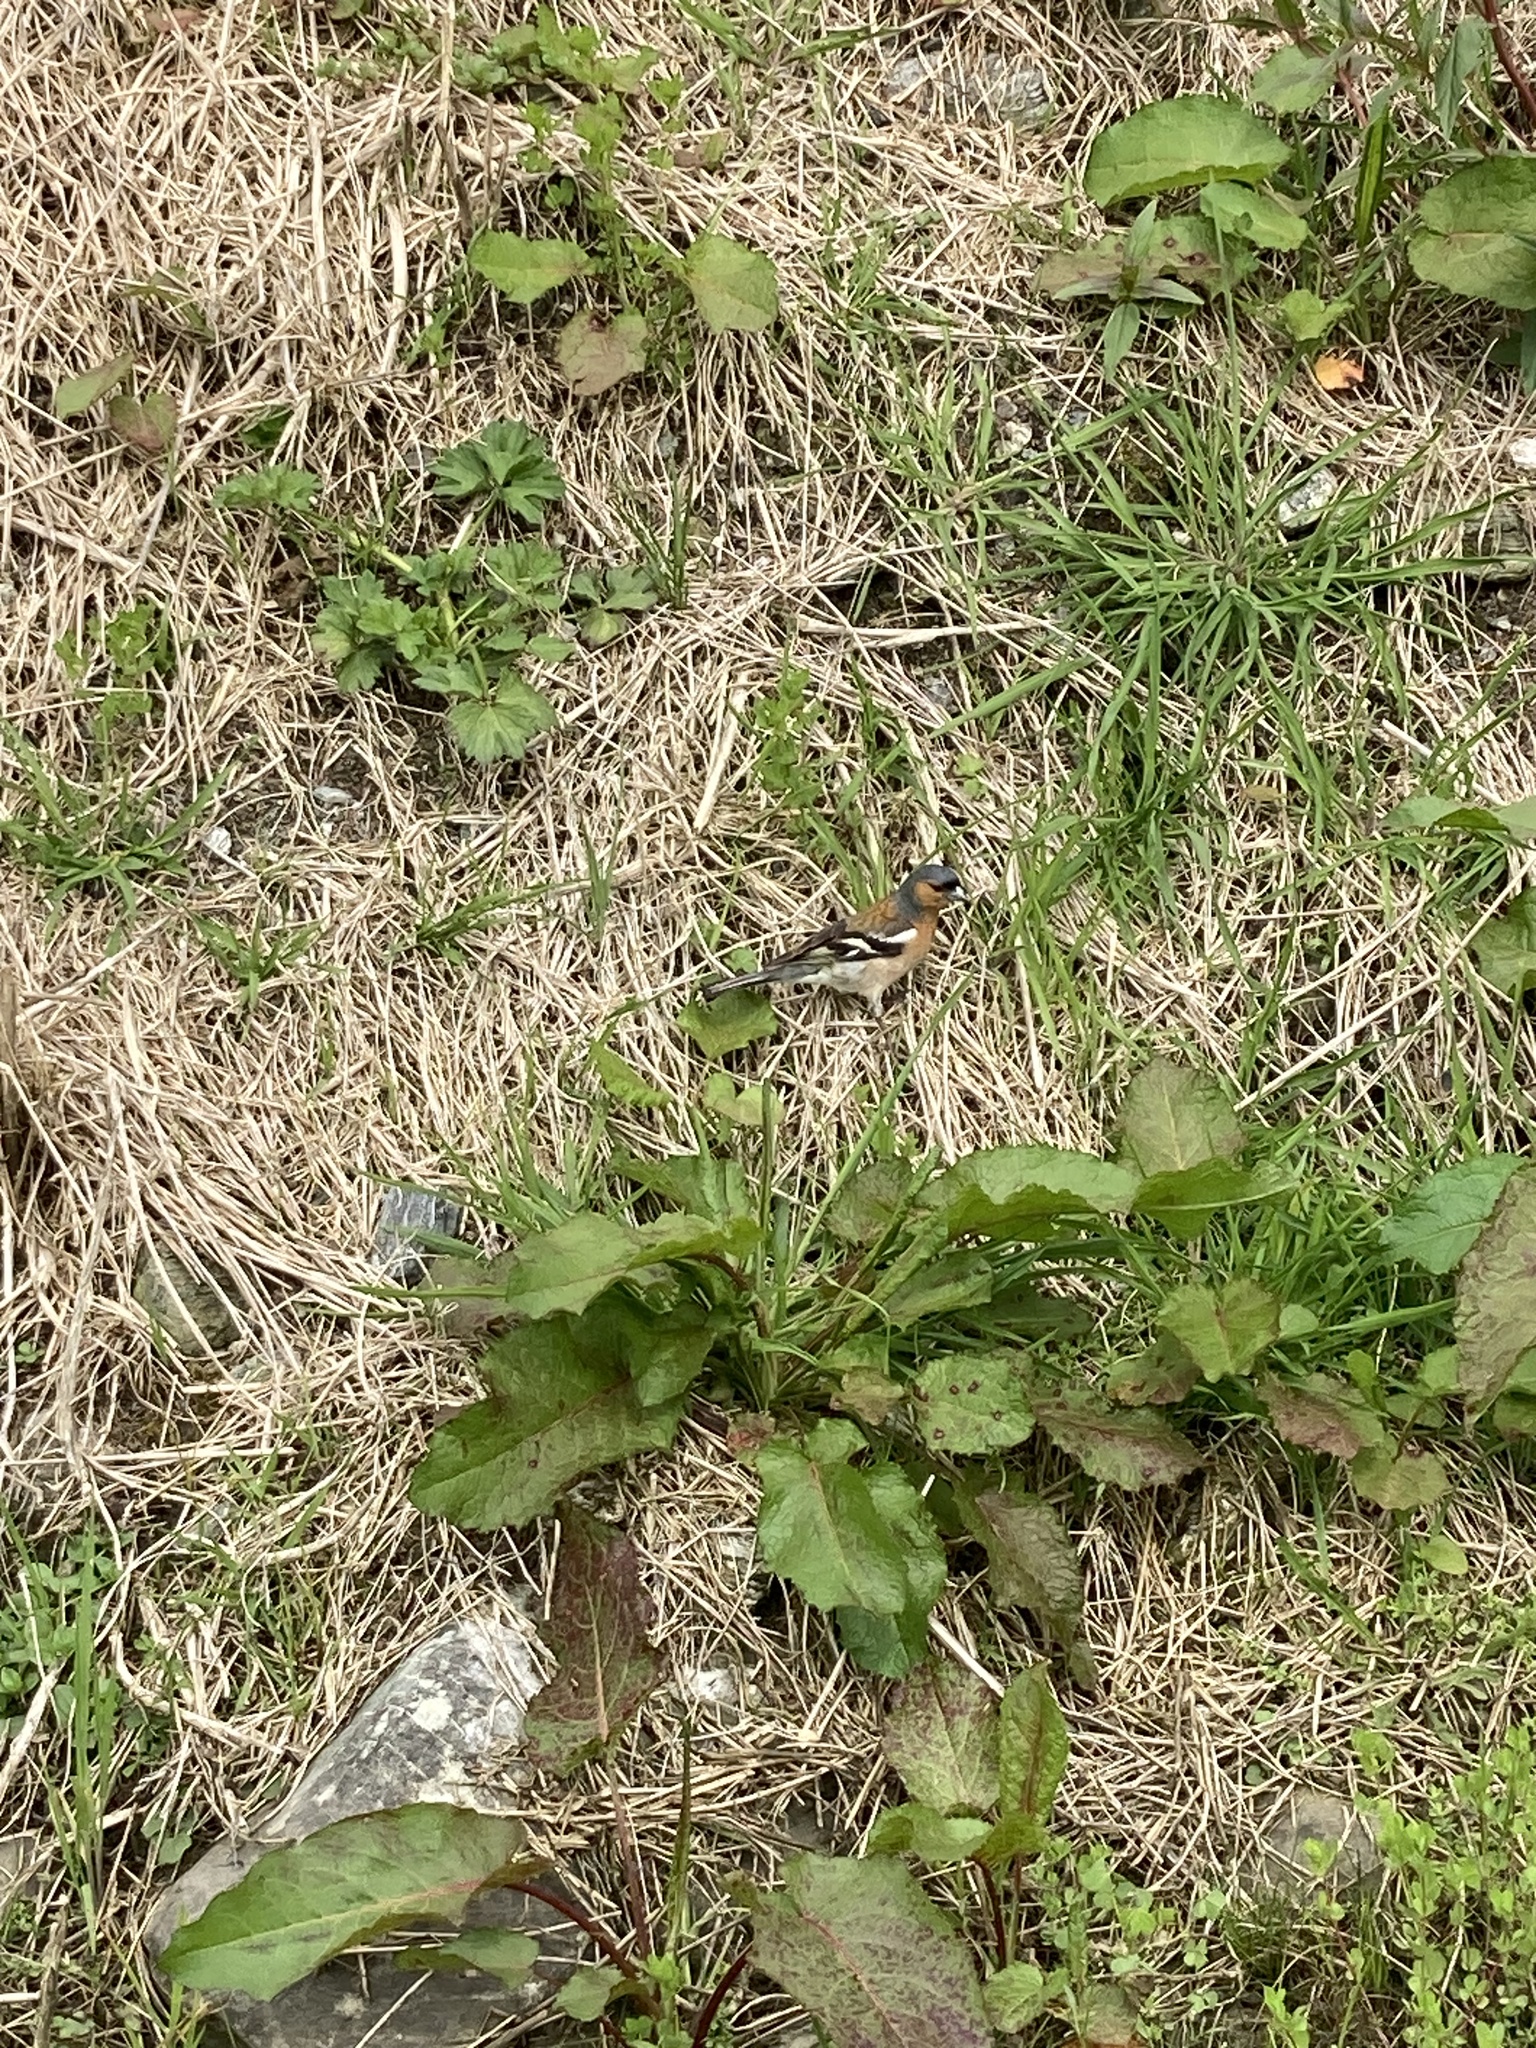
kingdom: Animalia
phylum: Chordata
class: Aves
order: Passeriformes
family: Fringillidae
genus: Fringilla
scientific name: Fringilla coelebs
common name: Common chaffinch
